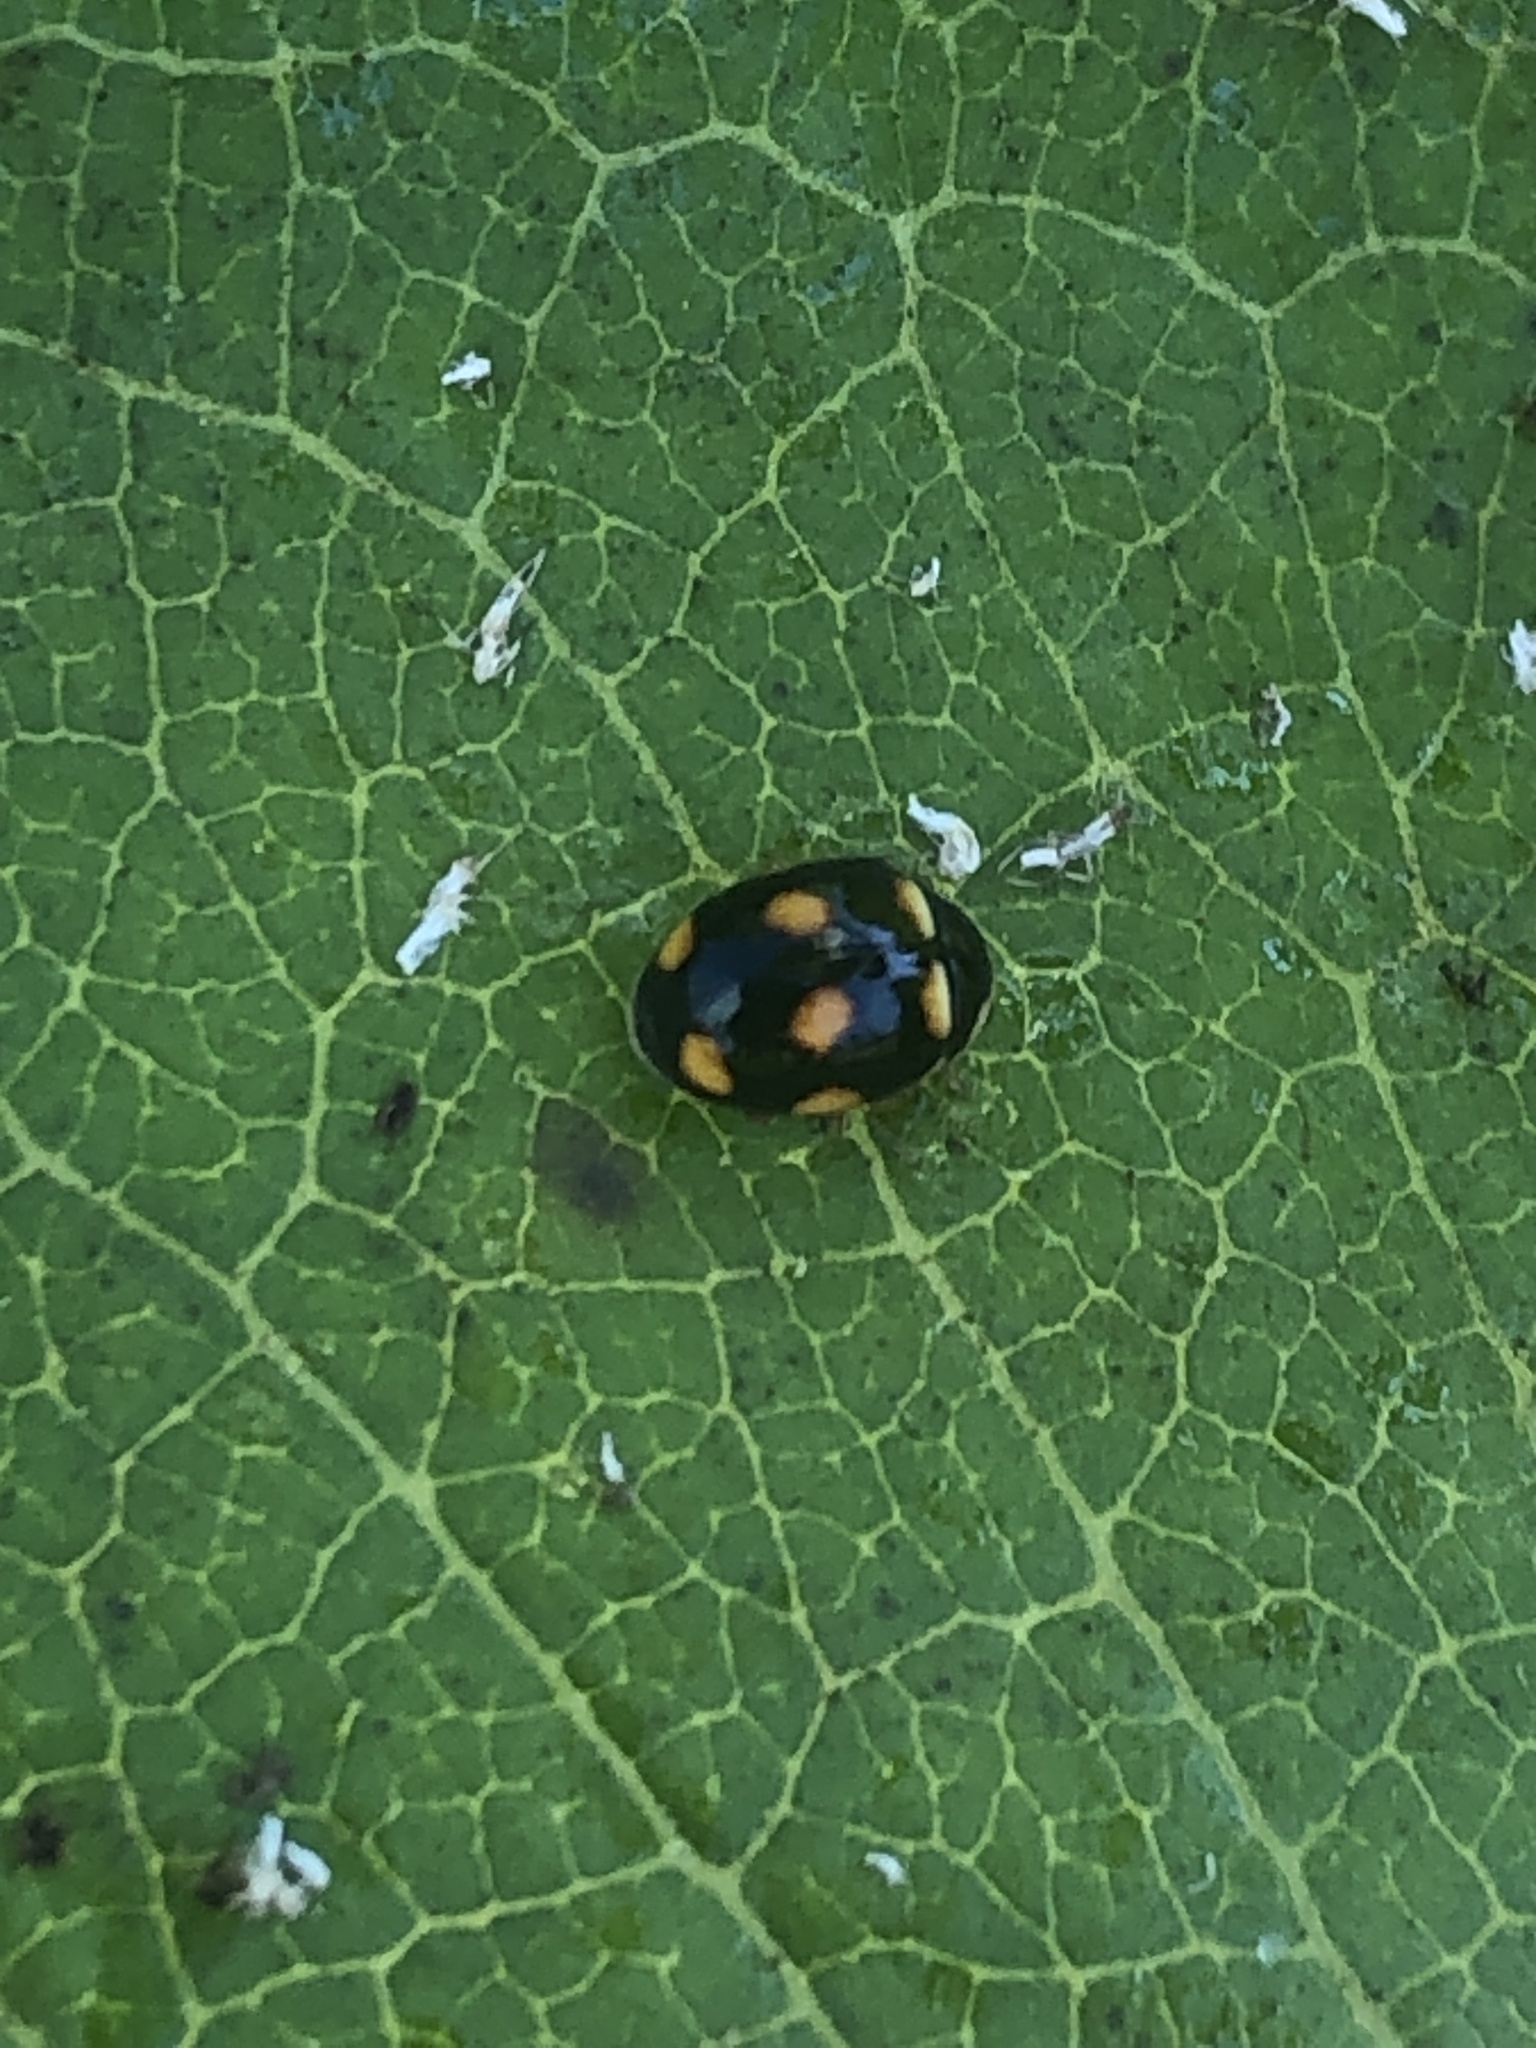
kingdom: Animalia
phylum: Arthropoda
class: Insecta
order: Coleoptera
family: Coccinellidae
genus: Brachiacantha
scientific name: Brachiacantha ursina
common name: Ursine spurleg lady beetle
